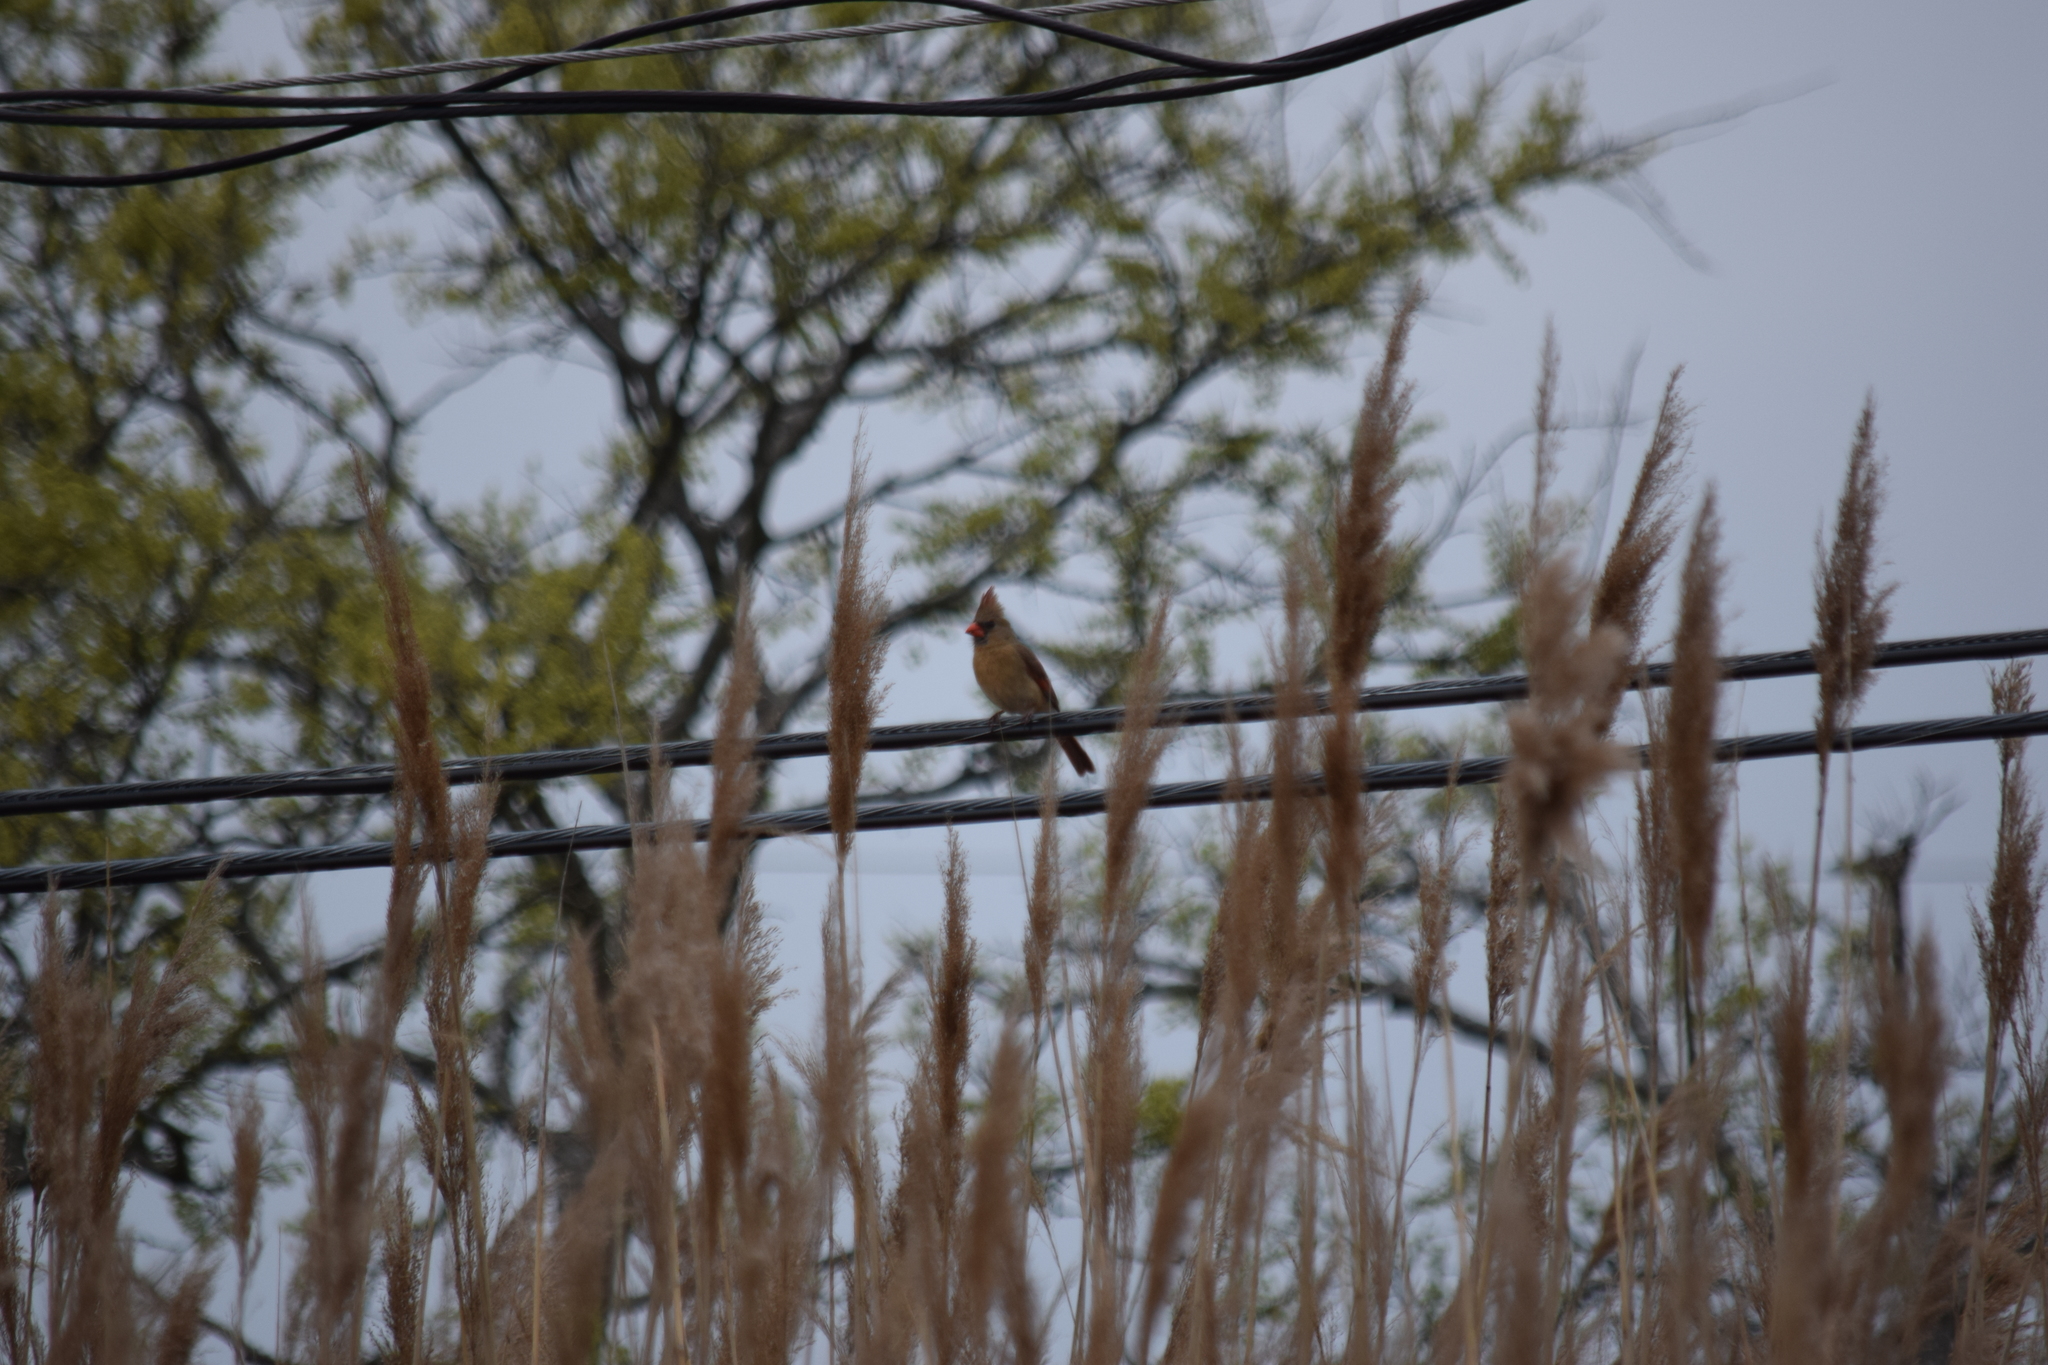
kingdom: Animalia
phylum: Chordata
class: Aves
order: Passeriformes
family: Cardinalidae
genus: Cardinalis
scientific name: Cardinalis cardinalis
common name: Northern cardinal
